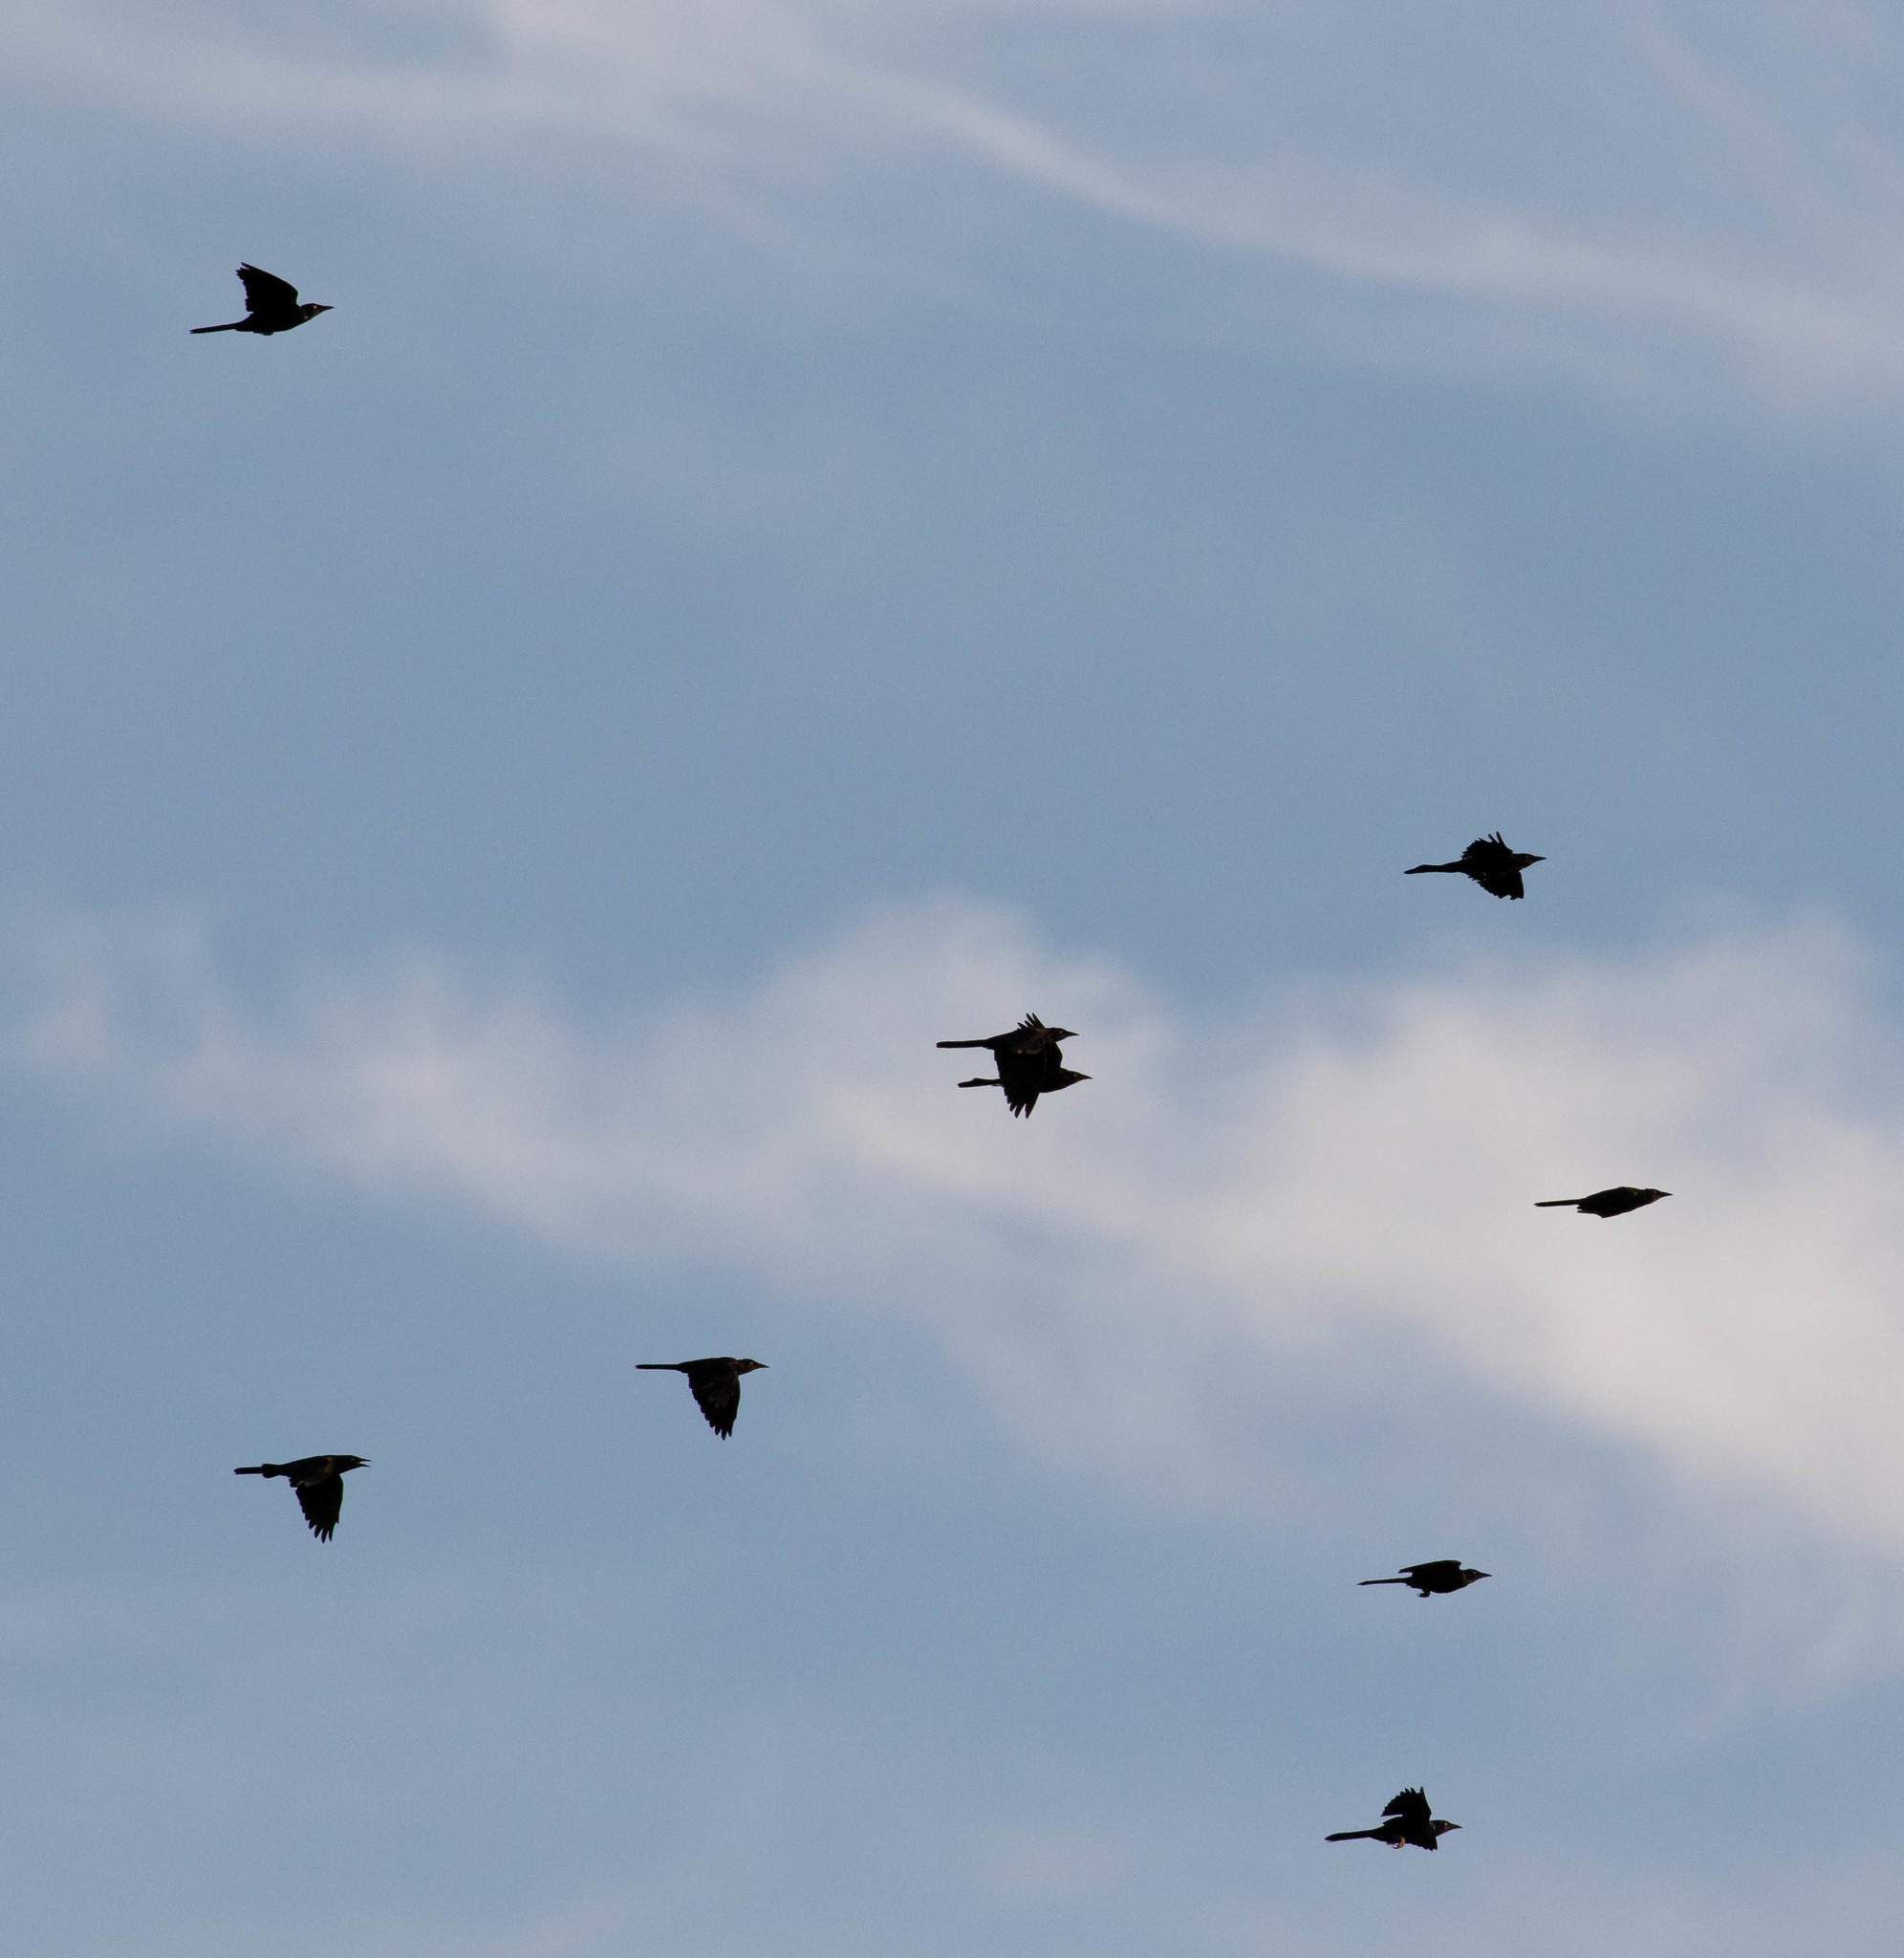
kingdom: Animalia
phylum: Chordata
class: Aves
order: Passeriformes
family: Icteridae
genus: Quiscalus
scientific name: Quiscalus quiscula
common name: Common grackle
